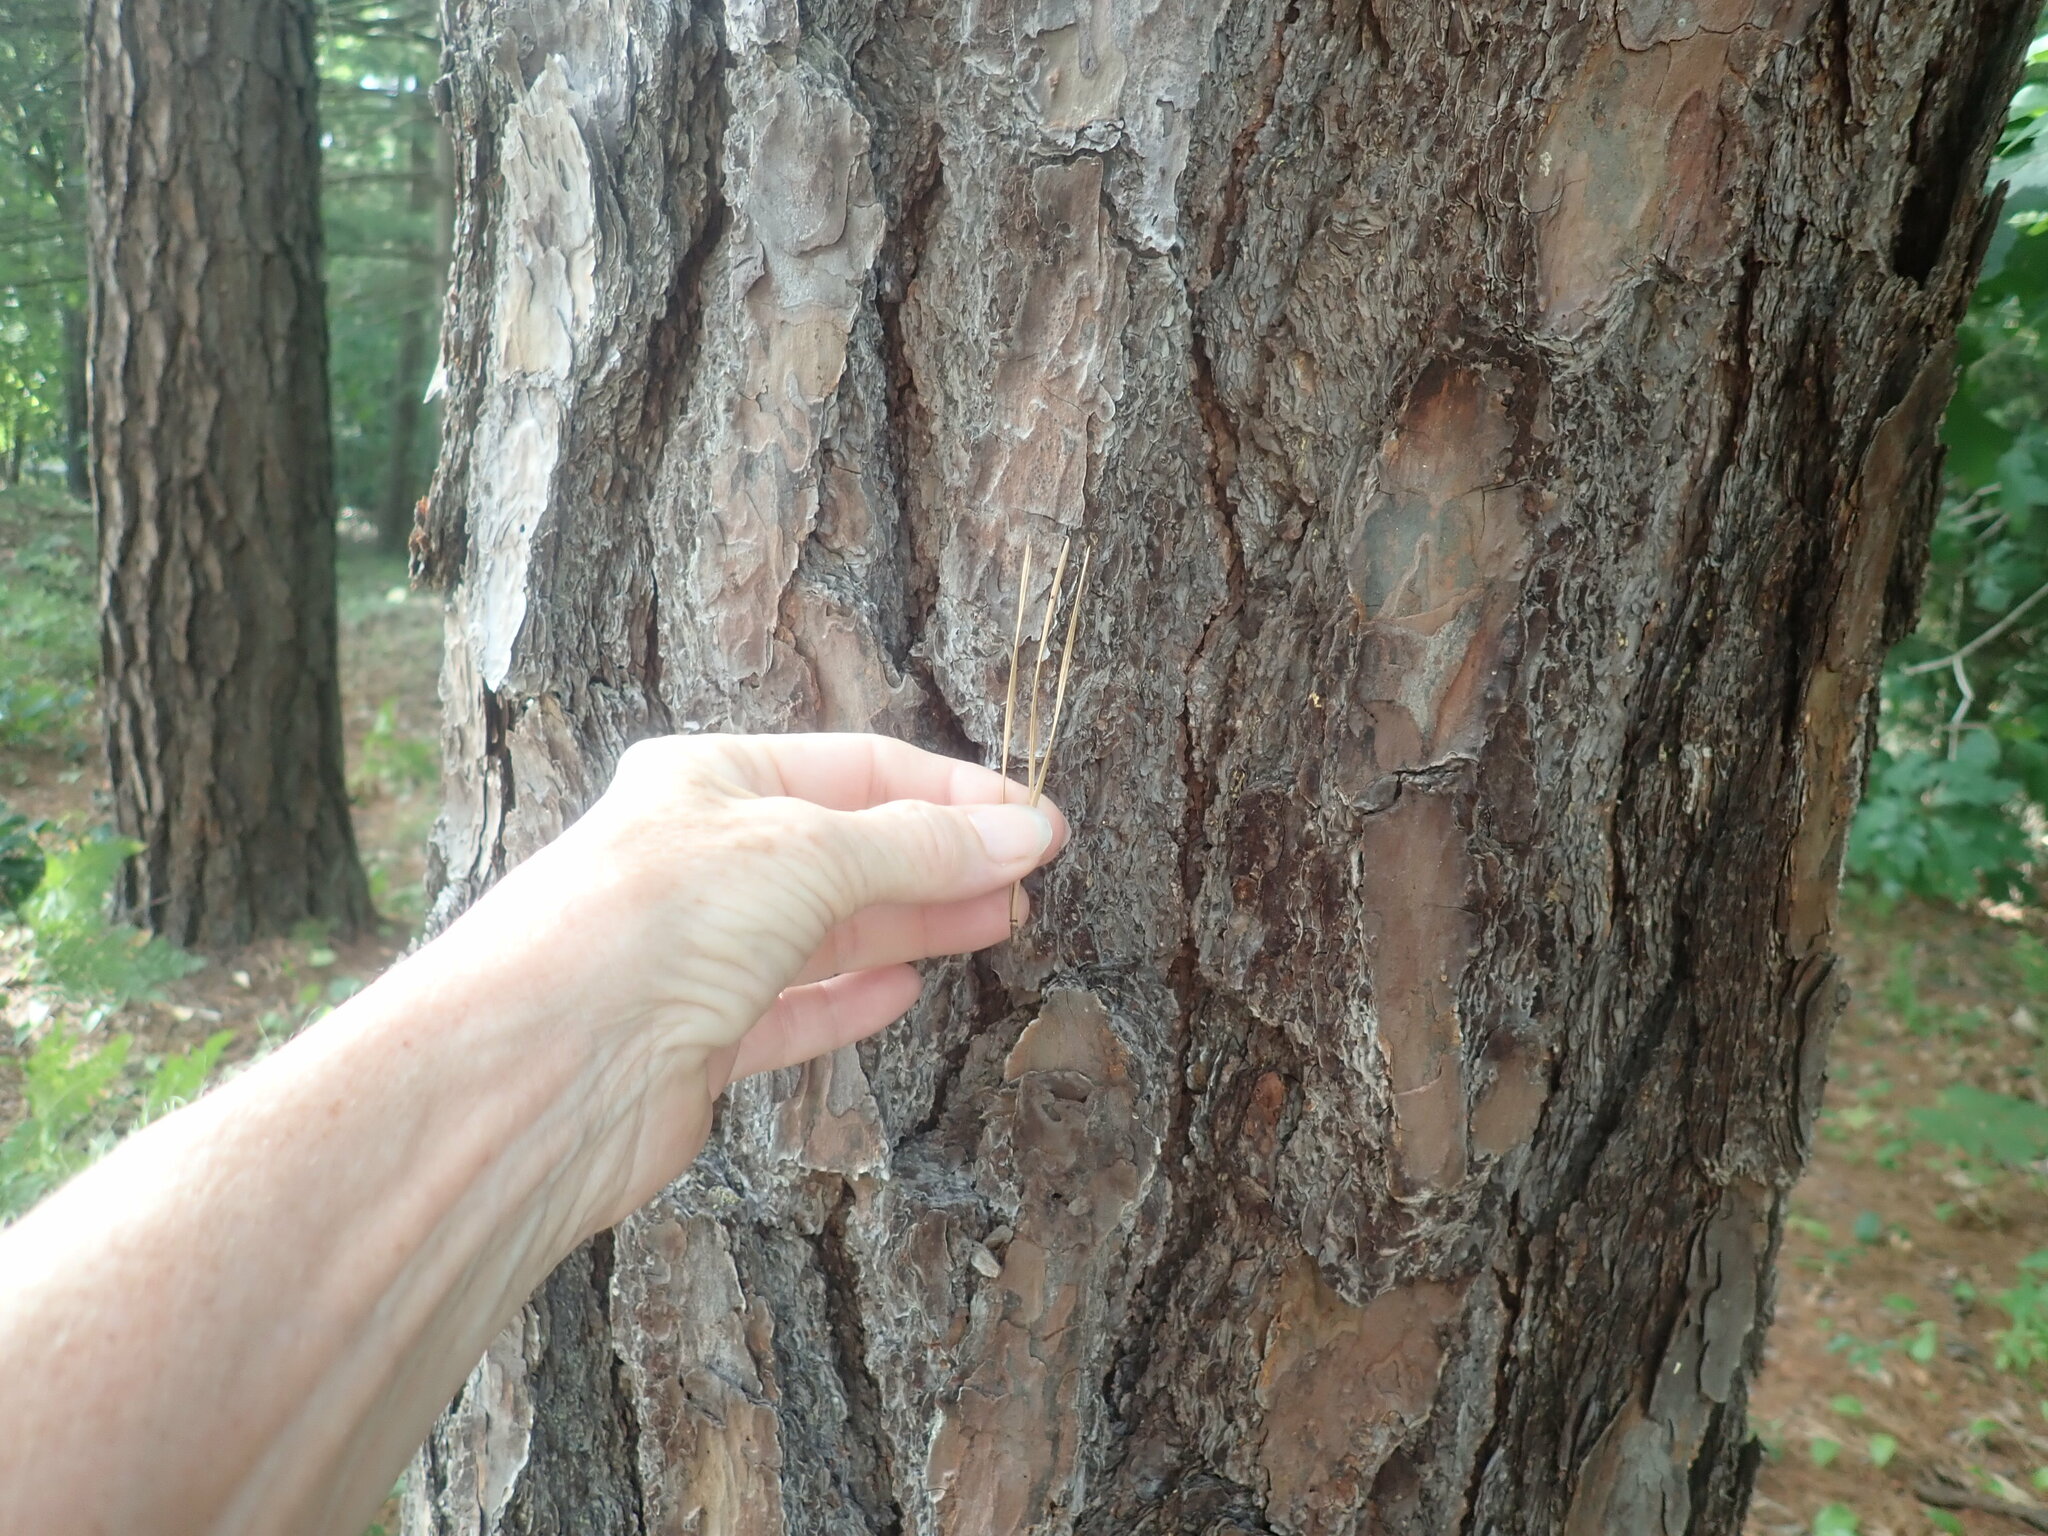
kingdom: Plantae
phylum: Tracheophyta
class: Pinopsida
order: Pinales
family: Pinaceae
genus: Pinus
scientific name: Pinus rigida
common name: Pitch pine
